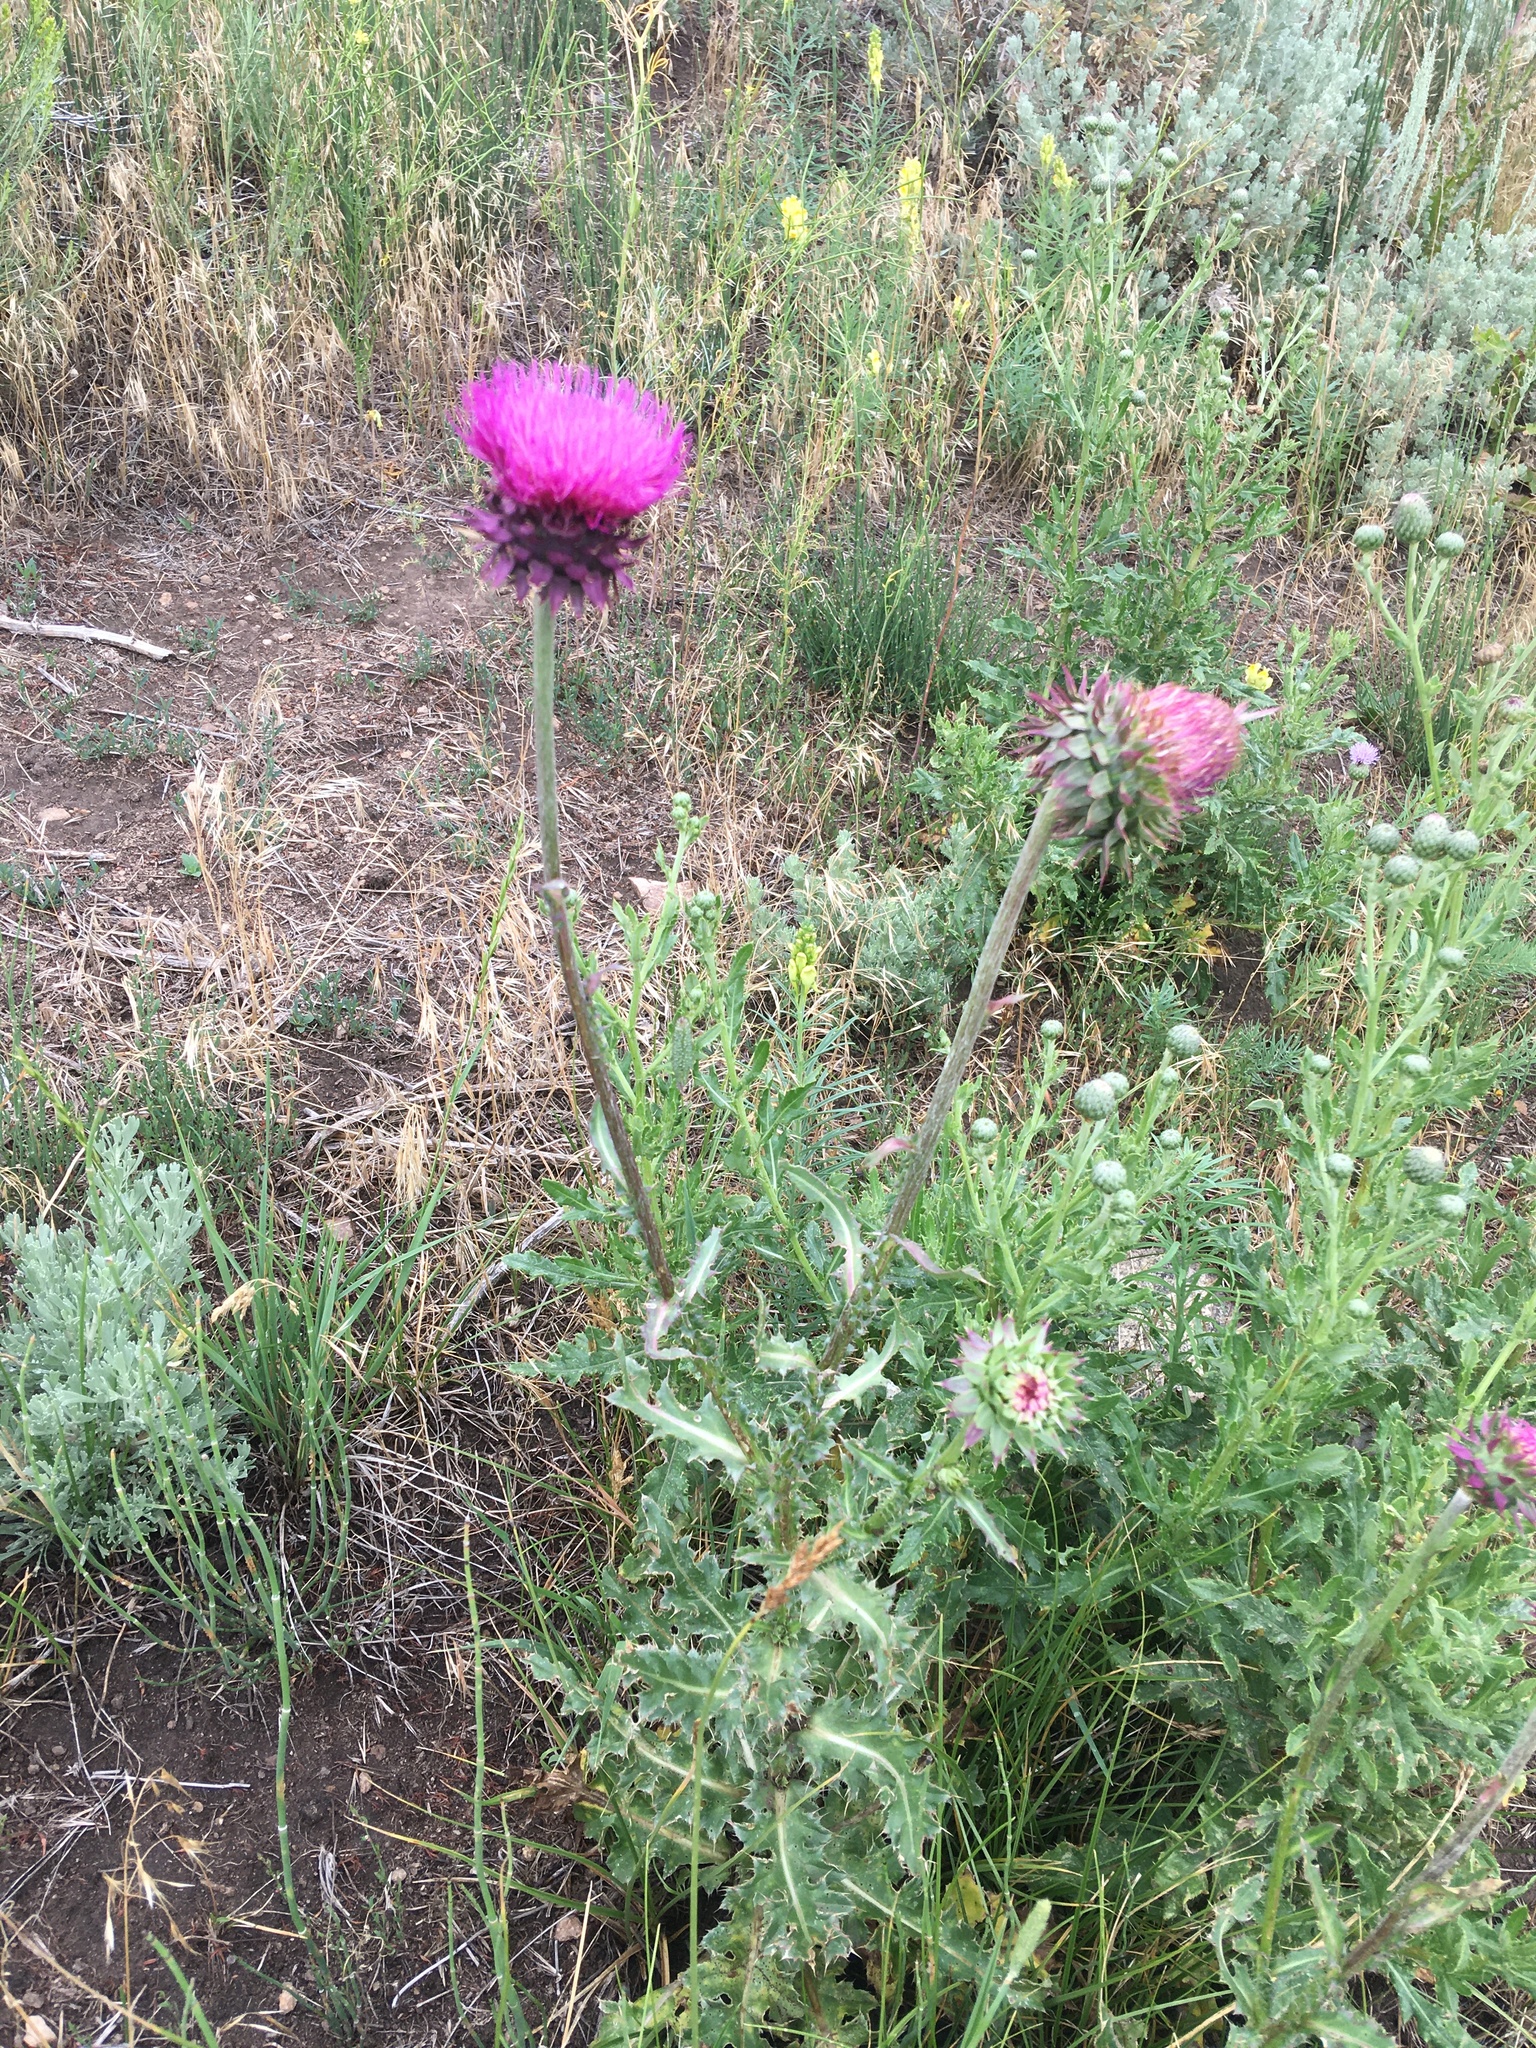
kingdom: Plantae
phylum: Tracheophyta
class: Magnoliopsida
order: Asterales
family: Asteraceae
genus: Carduus
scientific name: Carduus nutans
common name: Musk thistle
